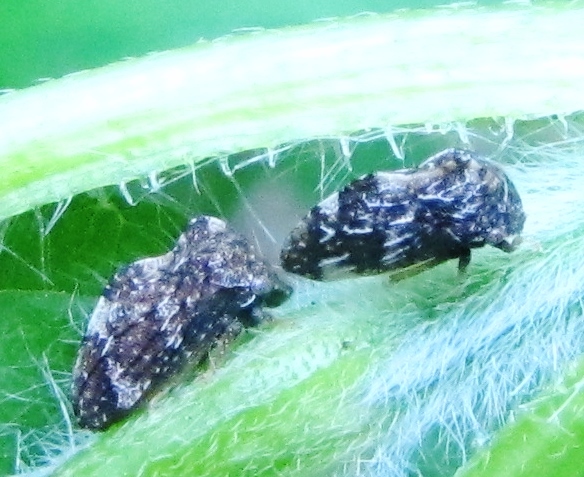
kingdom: Animalia
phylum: Arthropoda
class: Insecta
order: Hemiptera
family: Membracidae
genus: Publilia
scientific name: Publilia concava
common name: Aster treehopper
